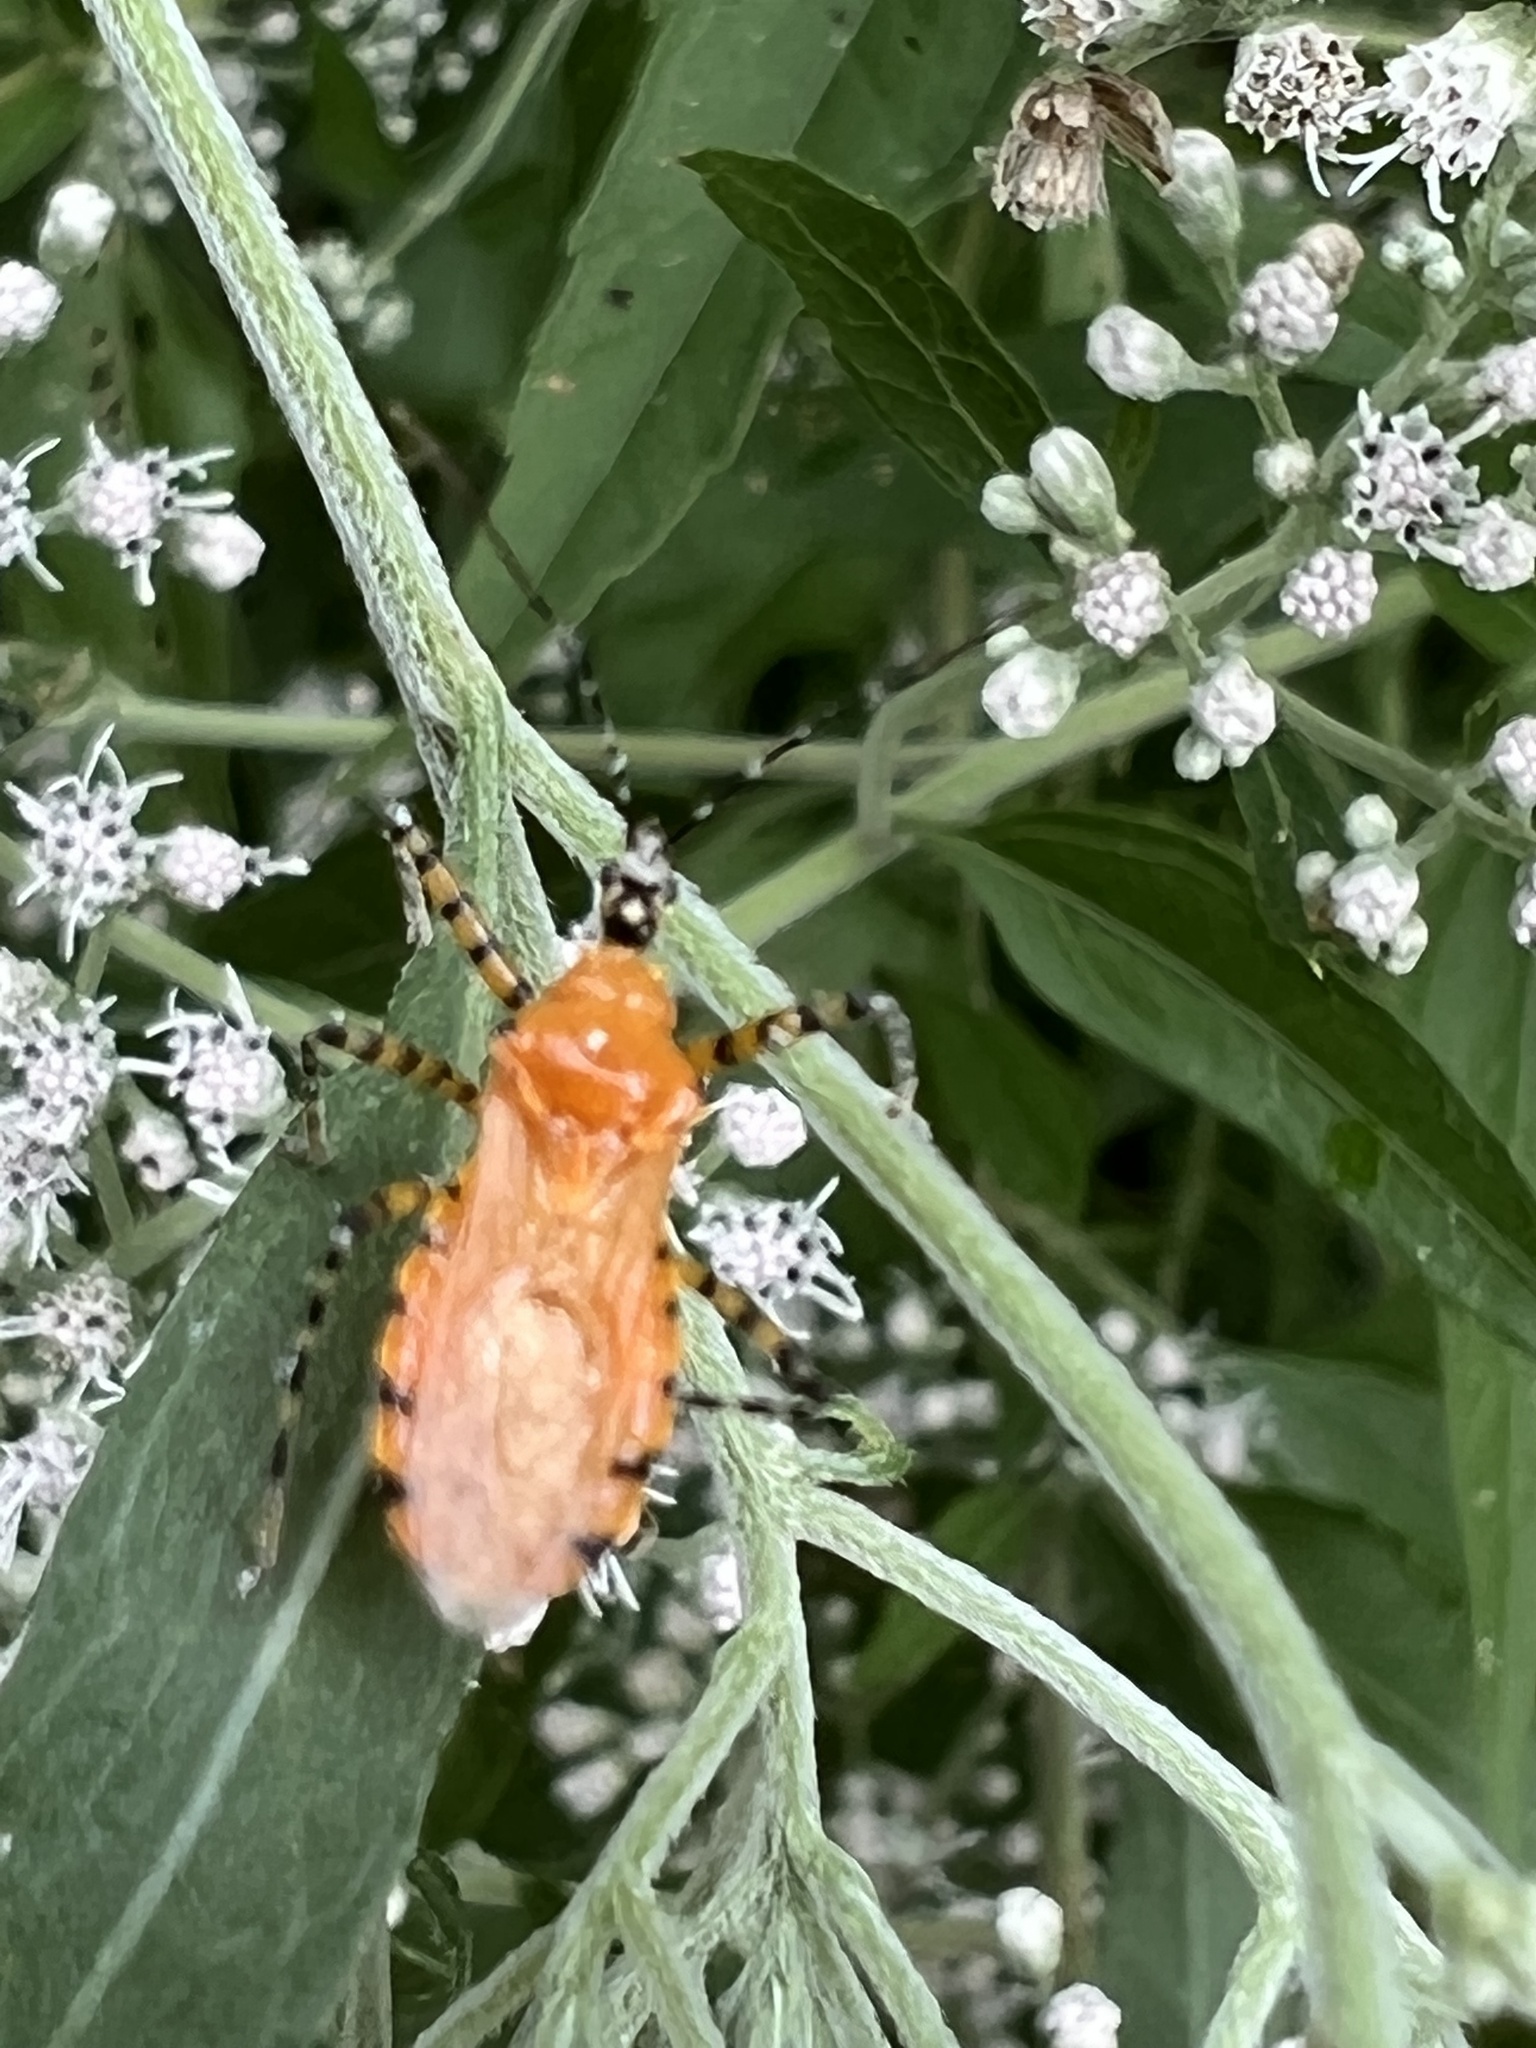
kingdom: Animalia
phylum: Arthropoda
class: Insecta
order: Hemiptera
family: Reduviidae
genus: Pselliopus
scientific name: Pselliopus barberi
